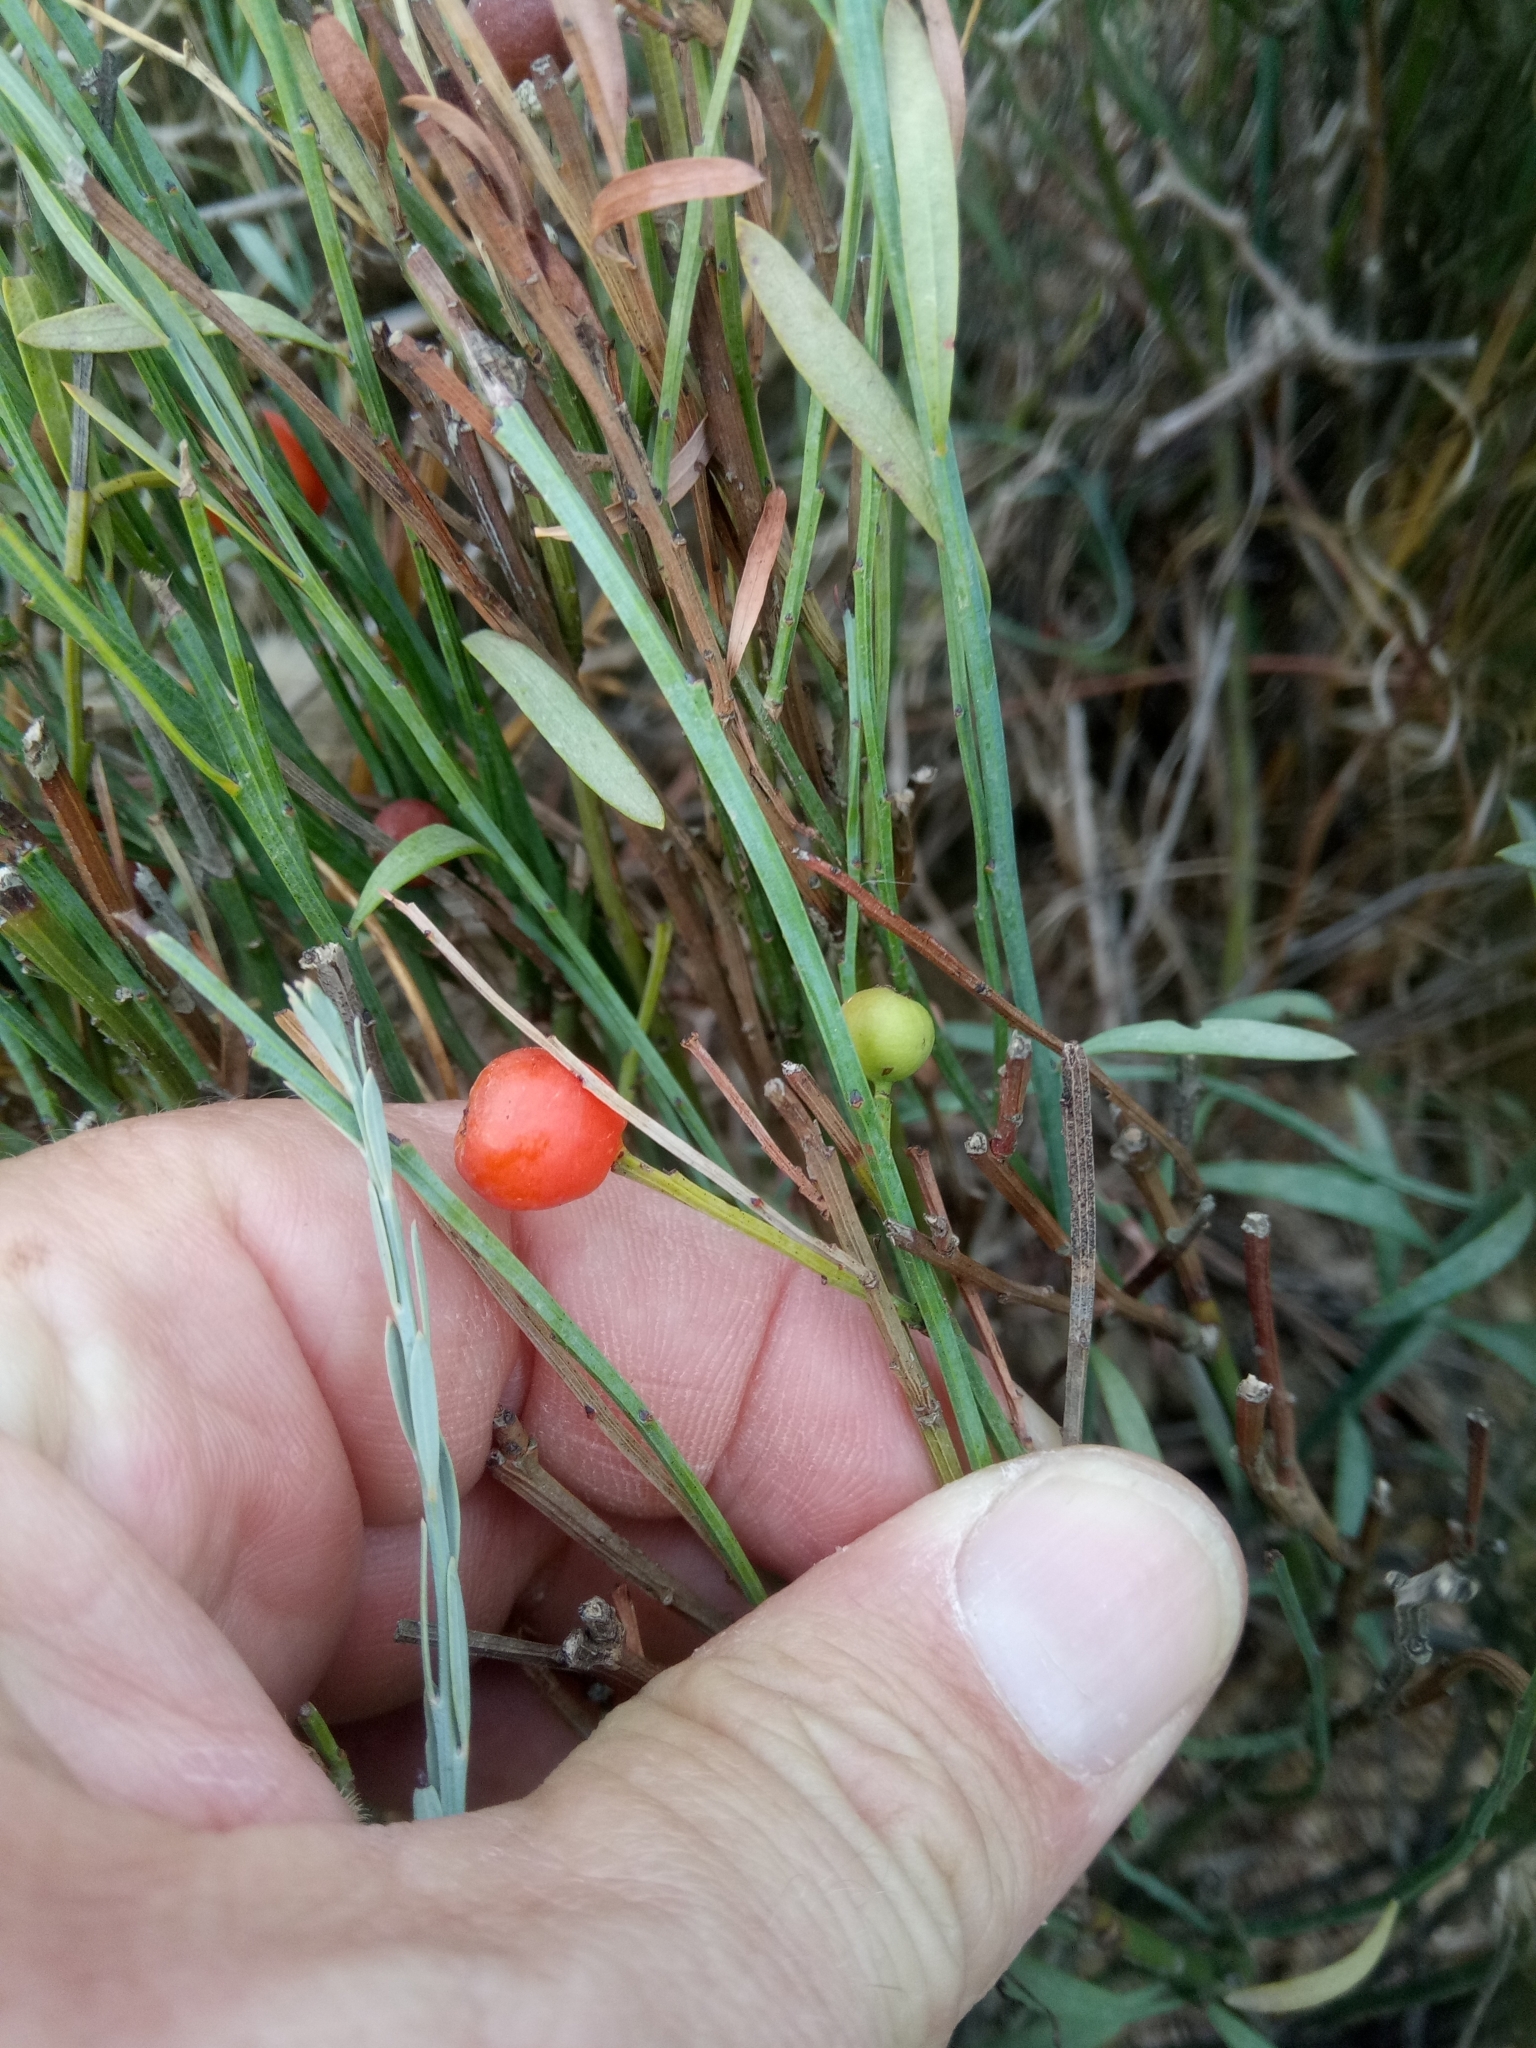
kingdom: Plantae
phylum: Tracheophyta
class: Magnoliopsida
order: Santalales
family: Santalaceae
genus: Osyris
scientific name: Osyris alba
